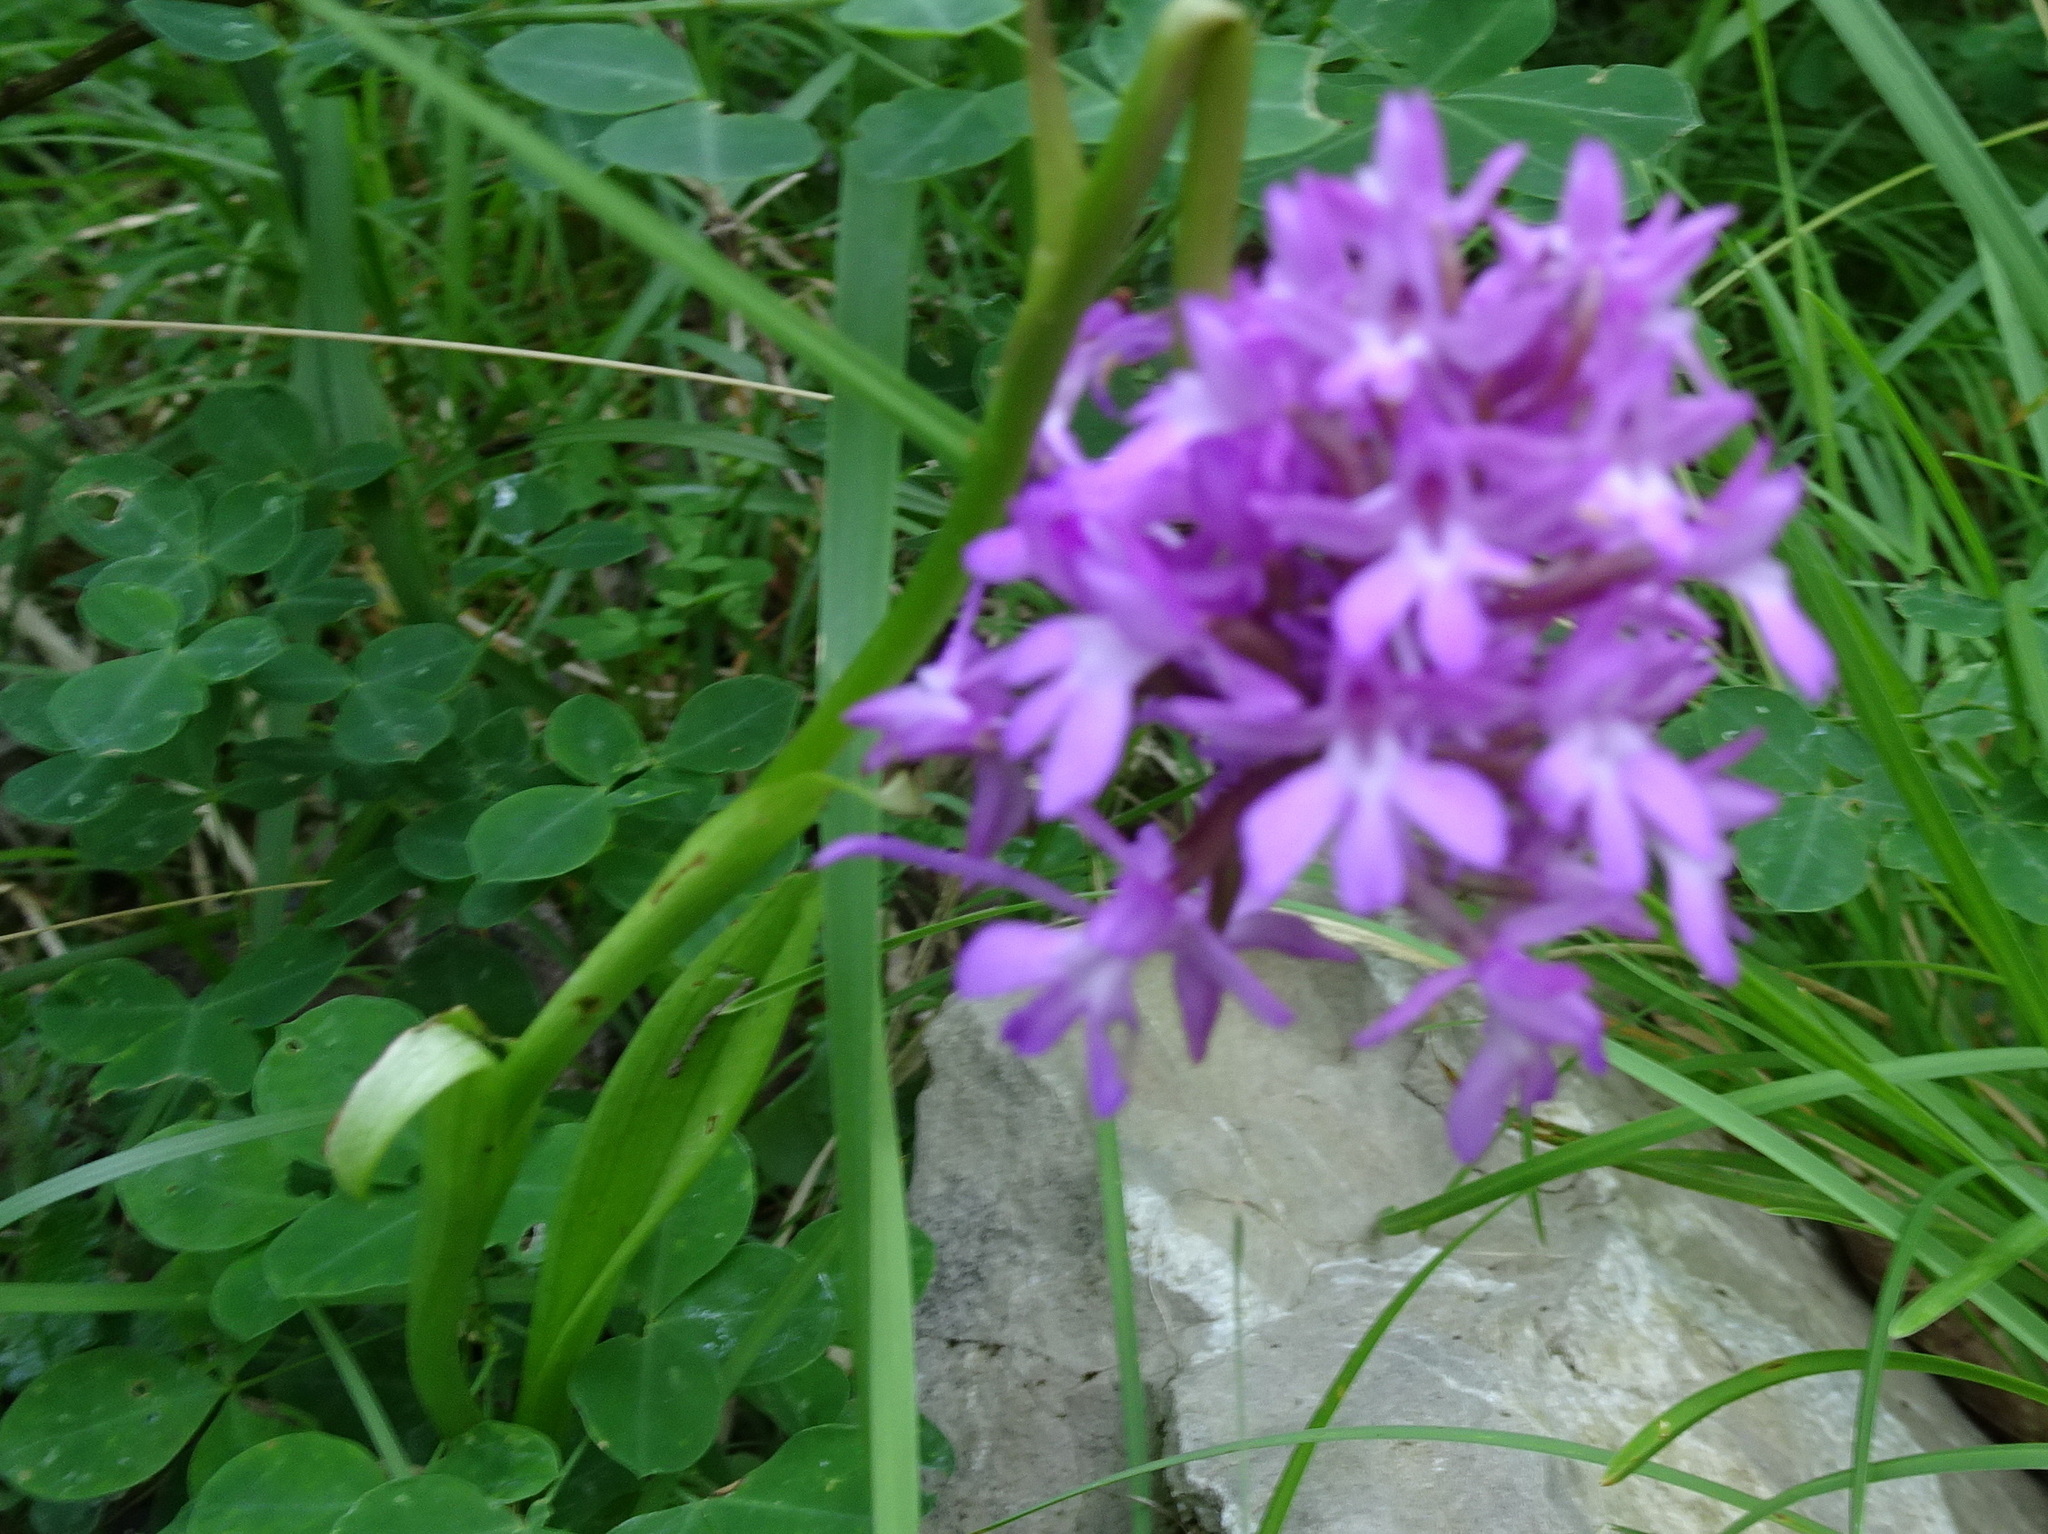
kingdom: Plantae
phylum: Tracheophyta
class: Liliopsida
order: Asparagales
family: Orchidaceae
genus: Anacamptis
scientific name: Anacamptis pyramidalis
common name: Pyramidal orchid
